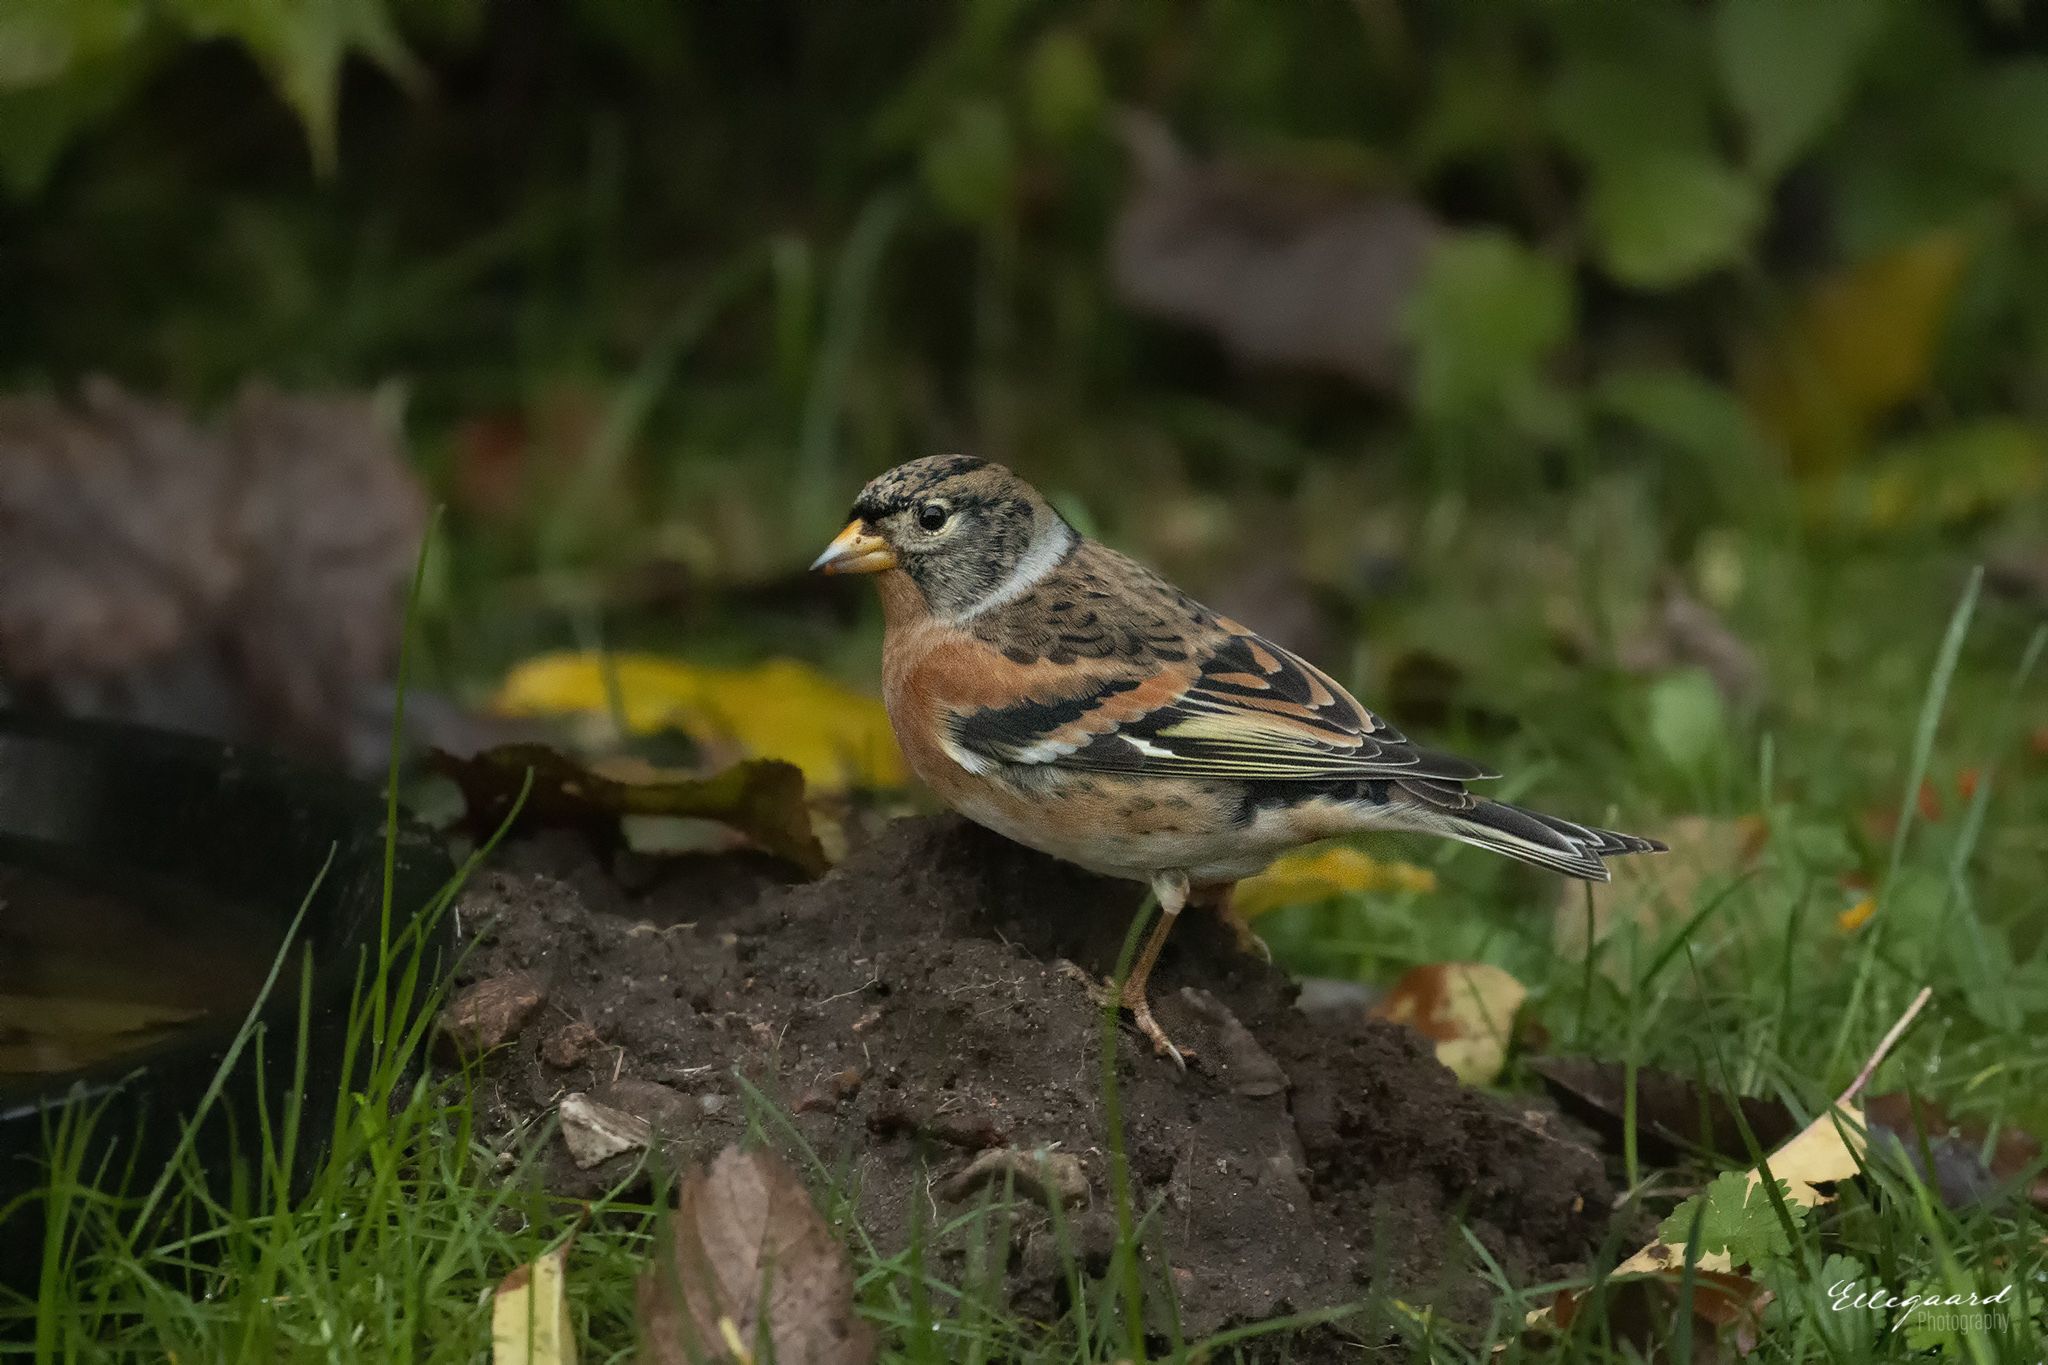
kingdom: Animalia
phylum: Chordata
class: Aves
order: Passeriformes
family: Fringillidae
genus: Fringilla
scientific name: Fringilla montifringilla
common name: Brambling
